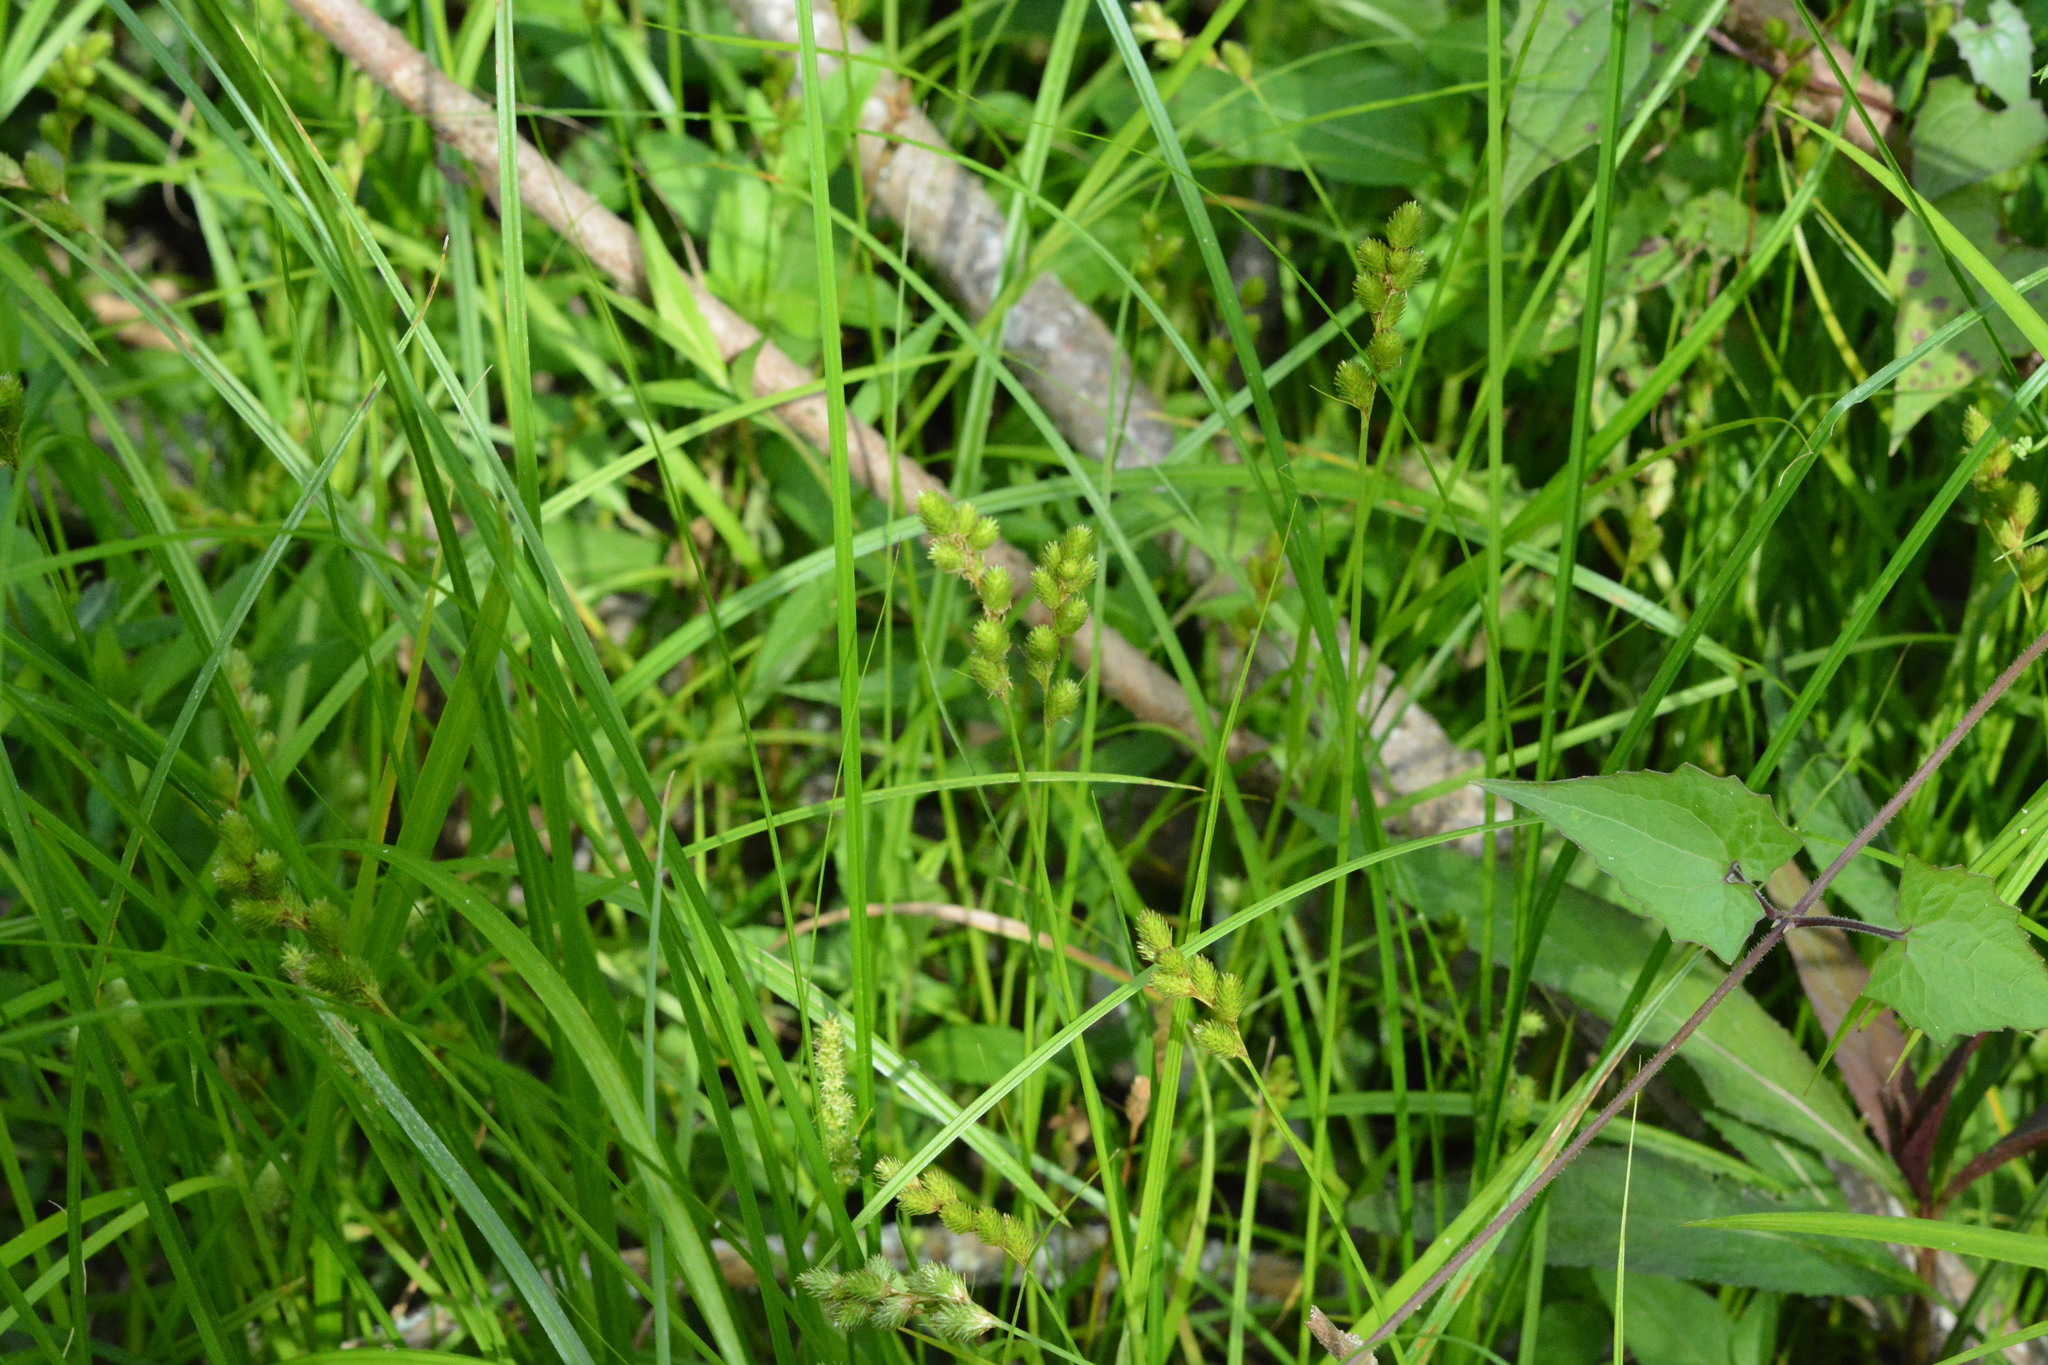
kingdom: Plantae
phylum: Tracheophyta
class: Liliopsida
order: Poales
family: Cyperaceae
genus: Carex
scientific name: Carex tribuloides
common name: Blunt broom sedge
